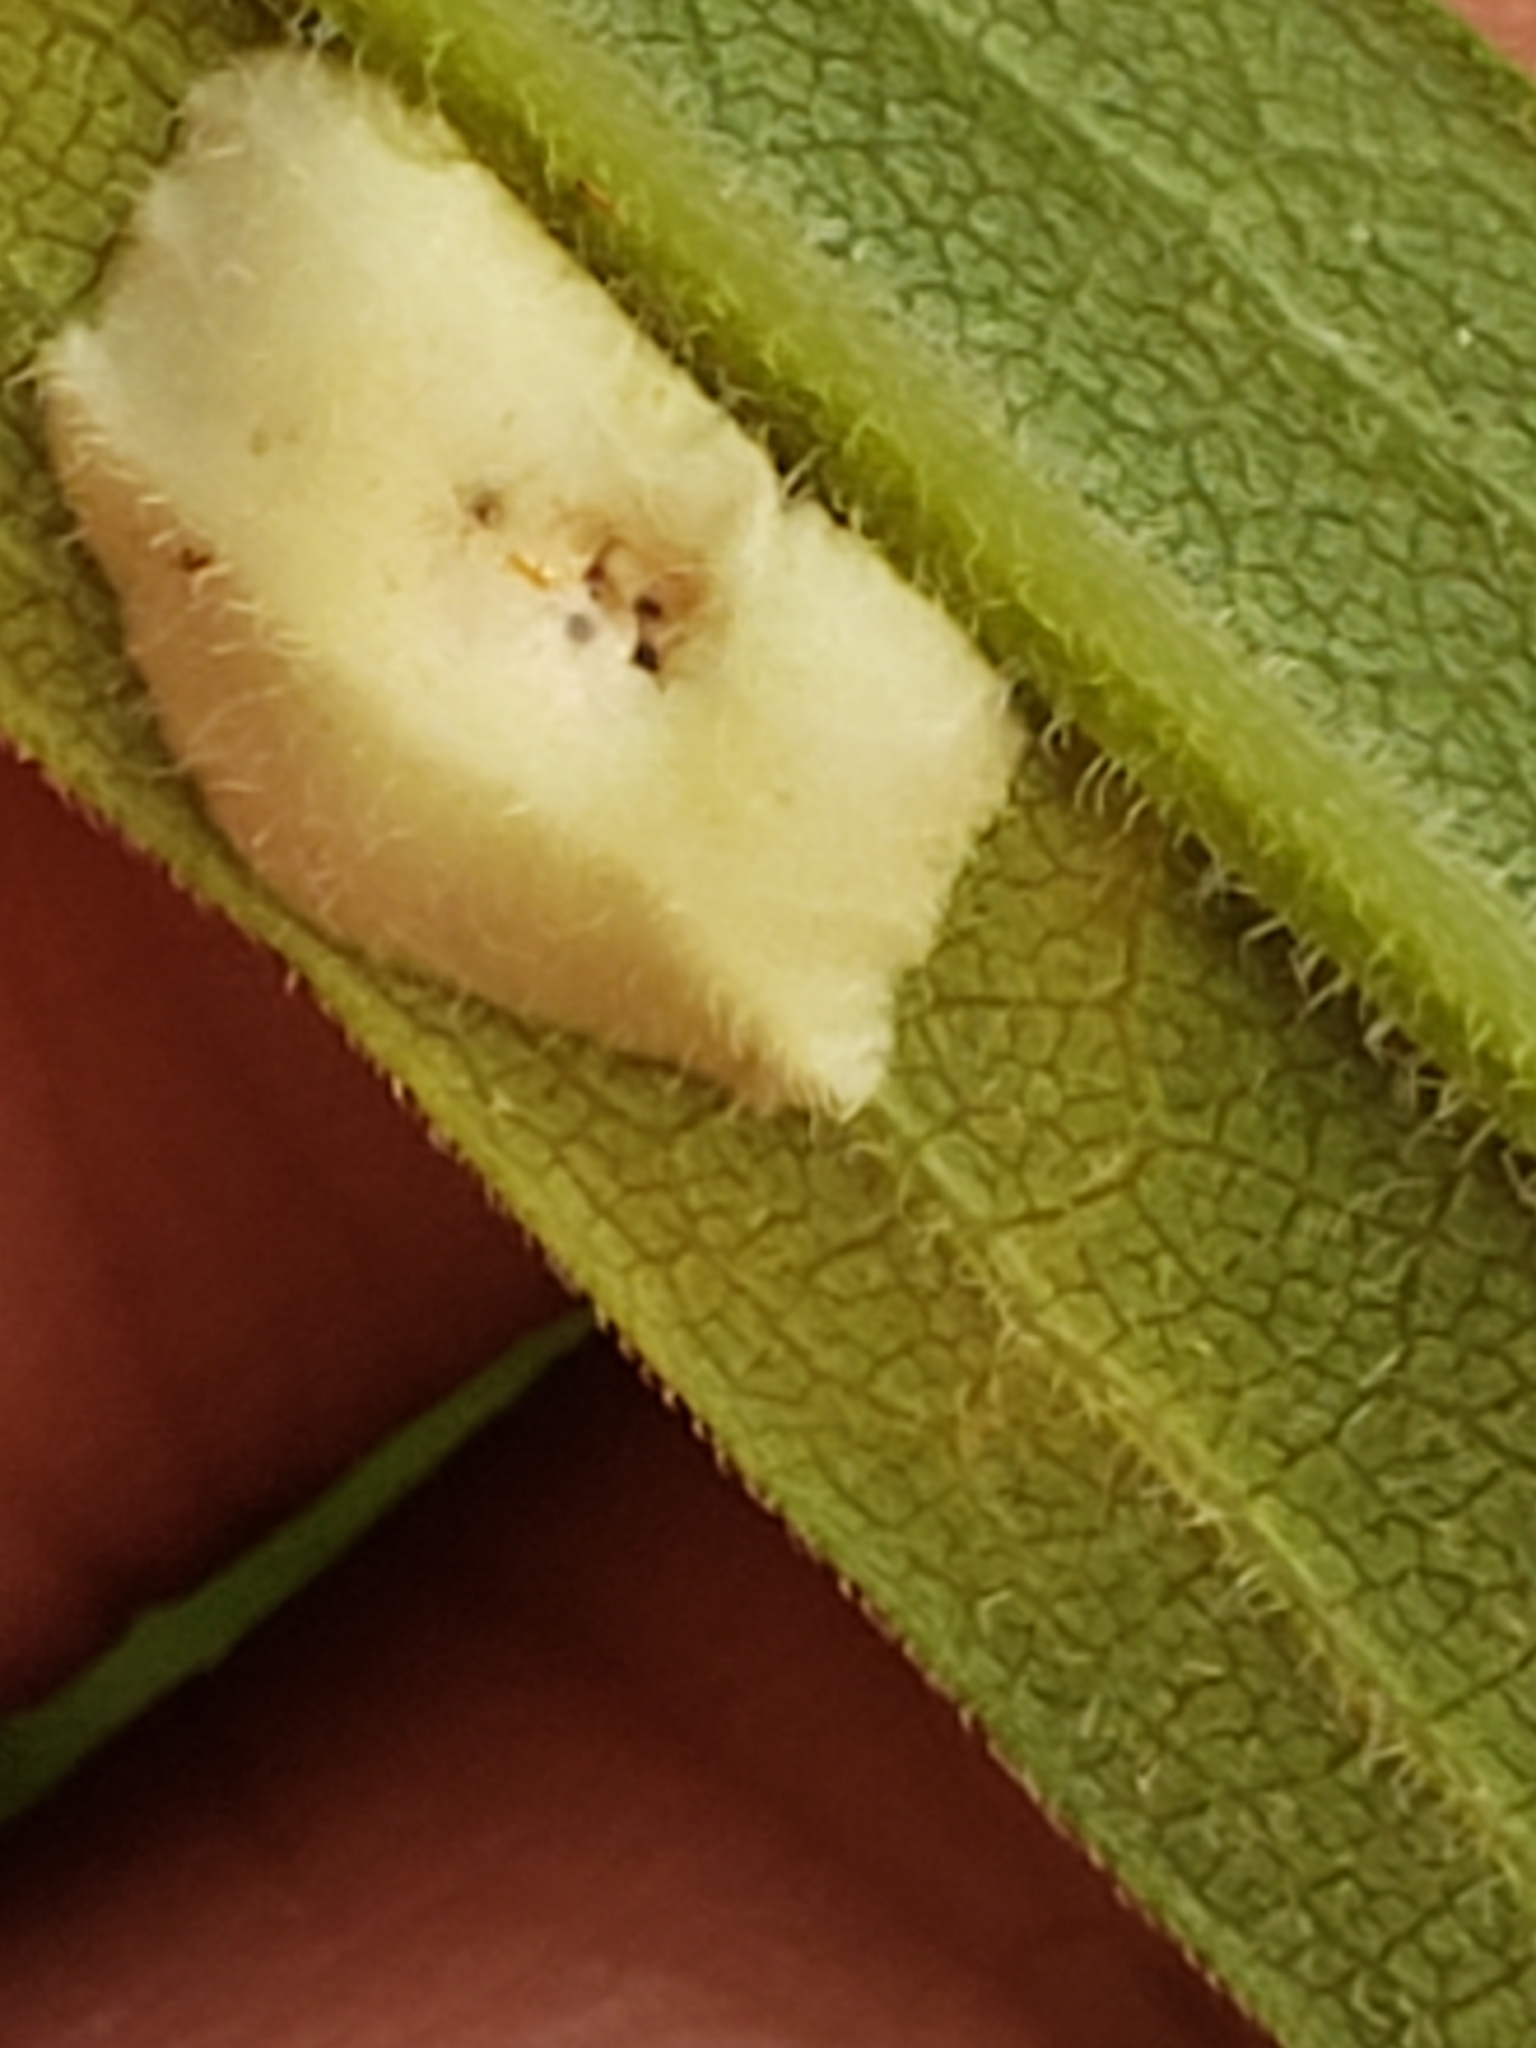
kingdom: Animalia
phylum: Arthropoda
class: Insecta
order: Diptera
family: Cecidomyiidae
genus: Asteromyia
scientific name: Asteromyia carbonifera
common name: Carbonifera goldenrod gall midge
